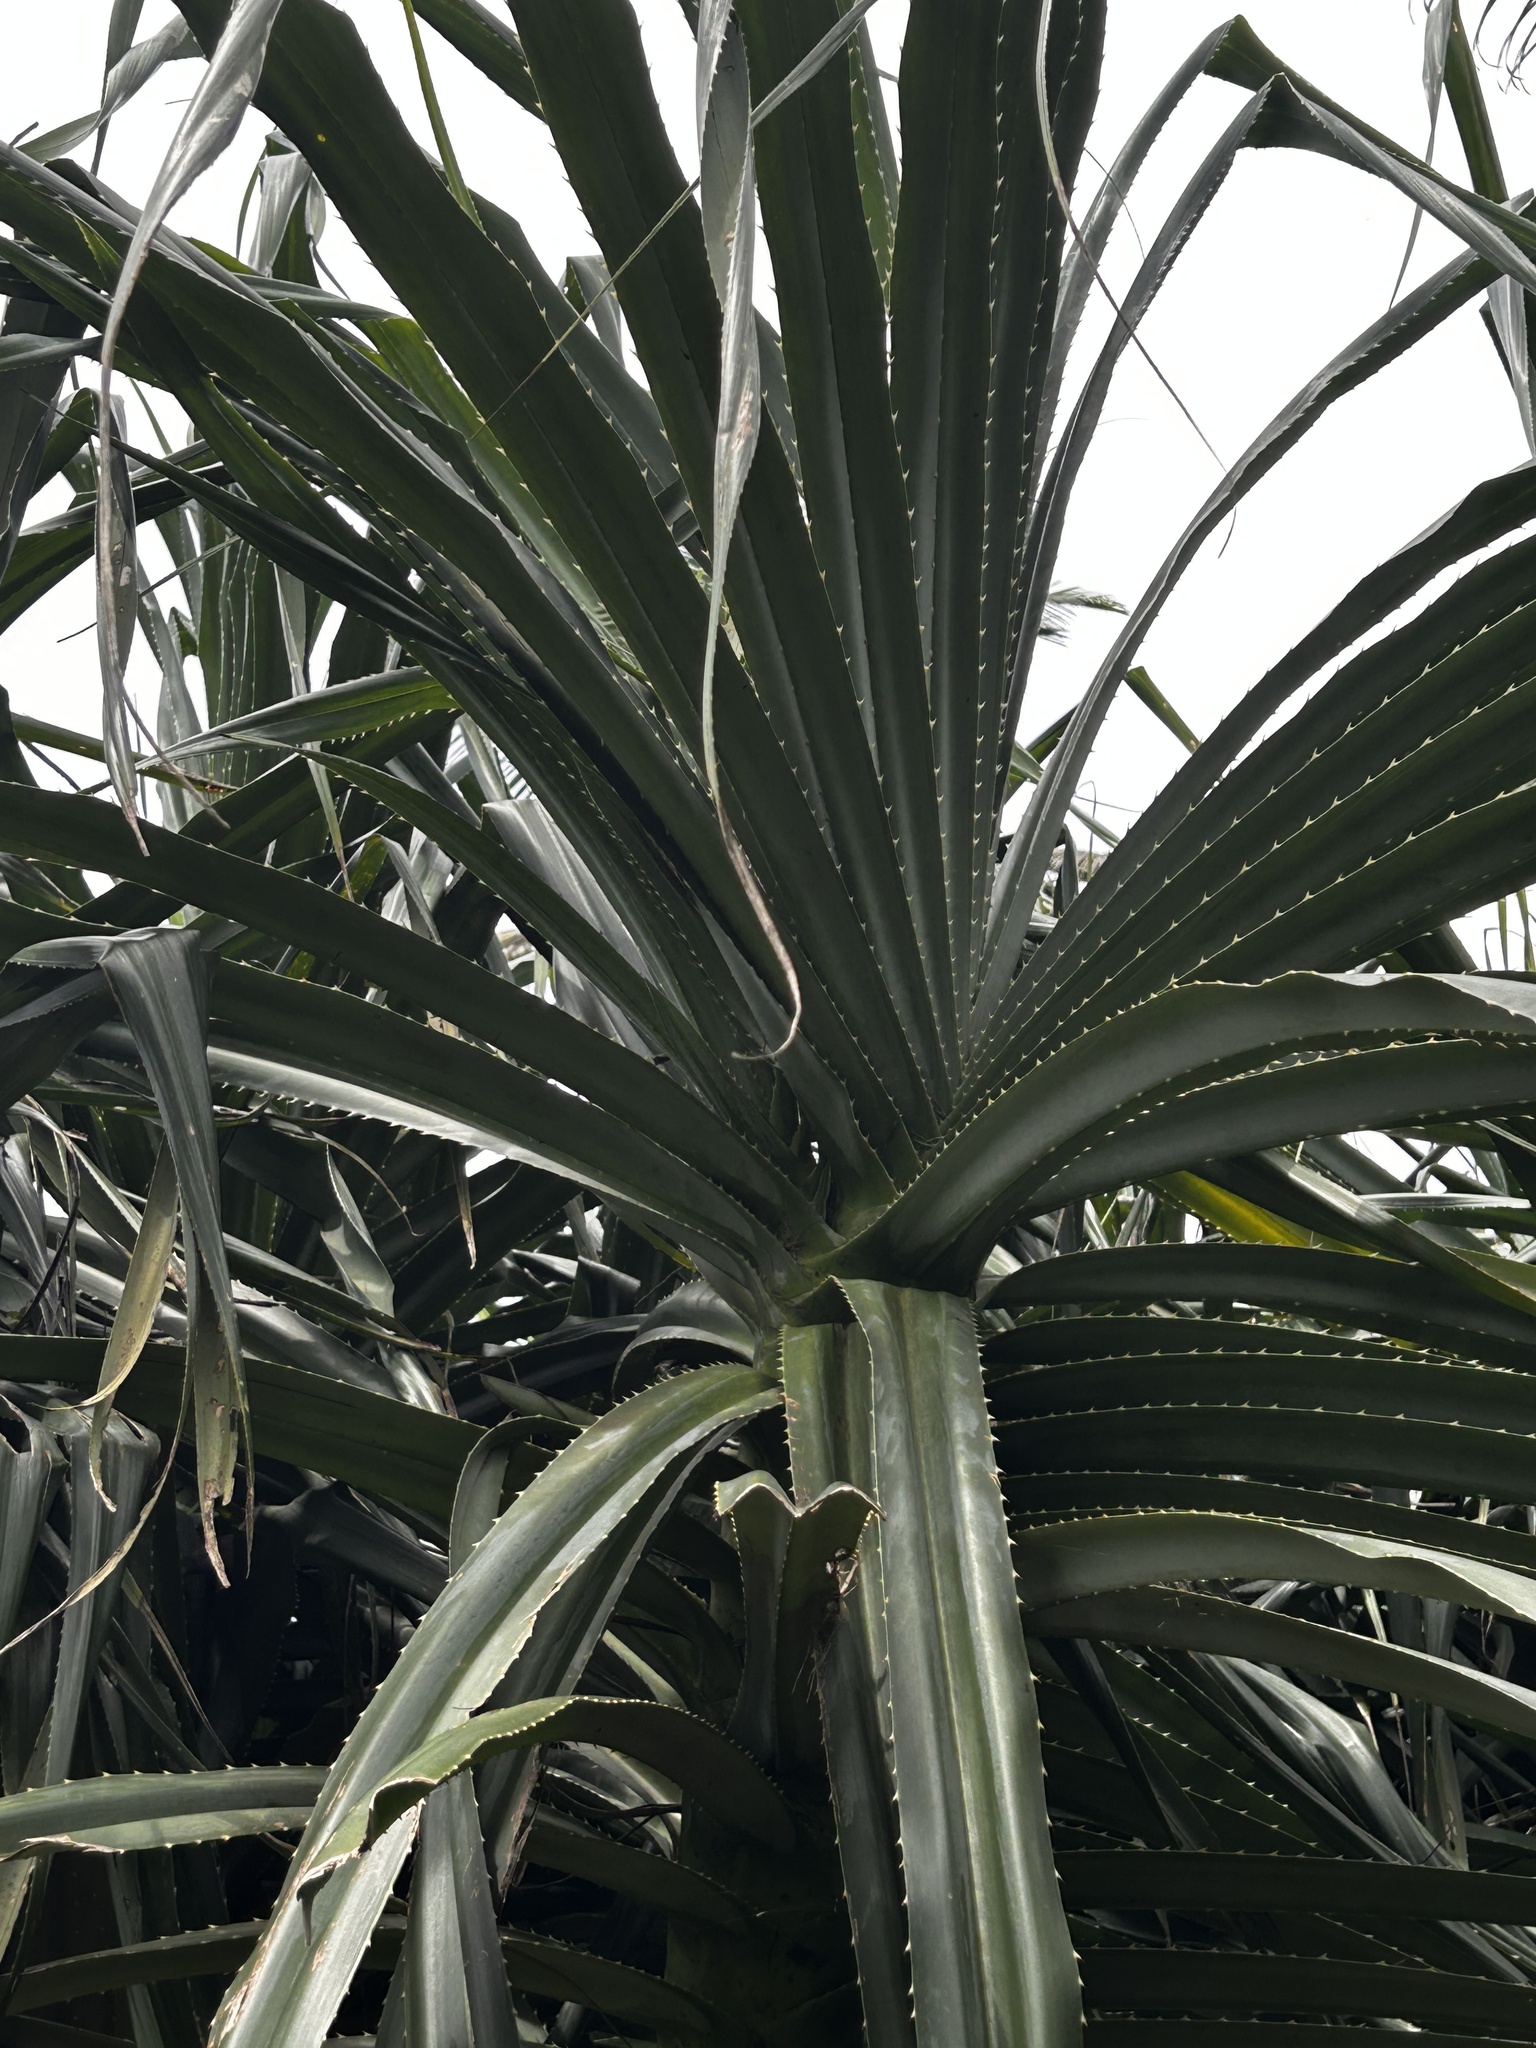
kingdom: Plantae
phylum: Tracheophyta
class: Liliopsida
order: Pandanales
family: Pandanaceae
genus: Pandanus
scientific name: Pandanus odorifer
